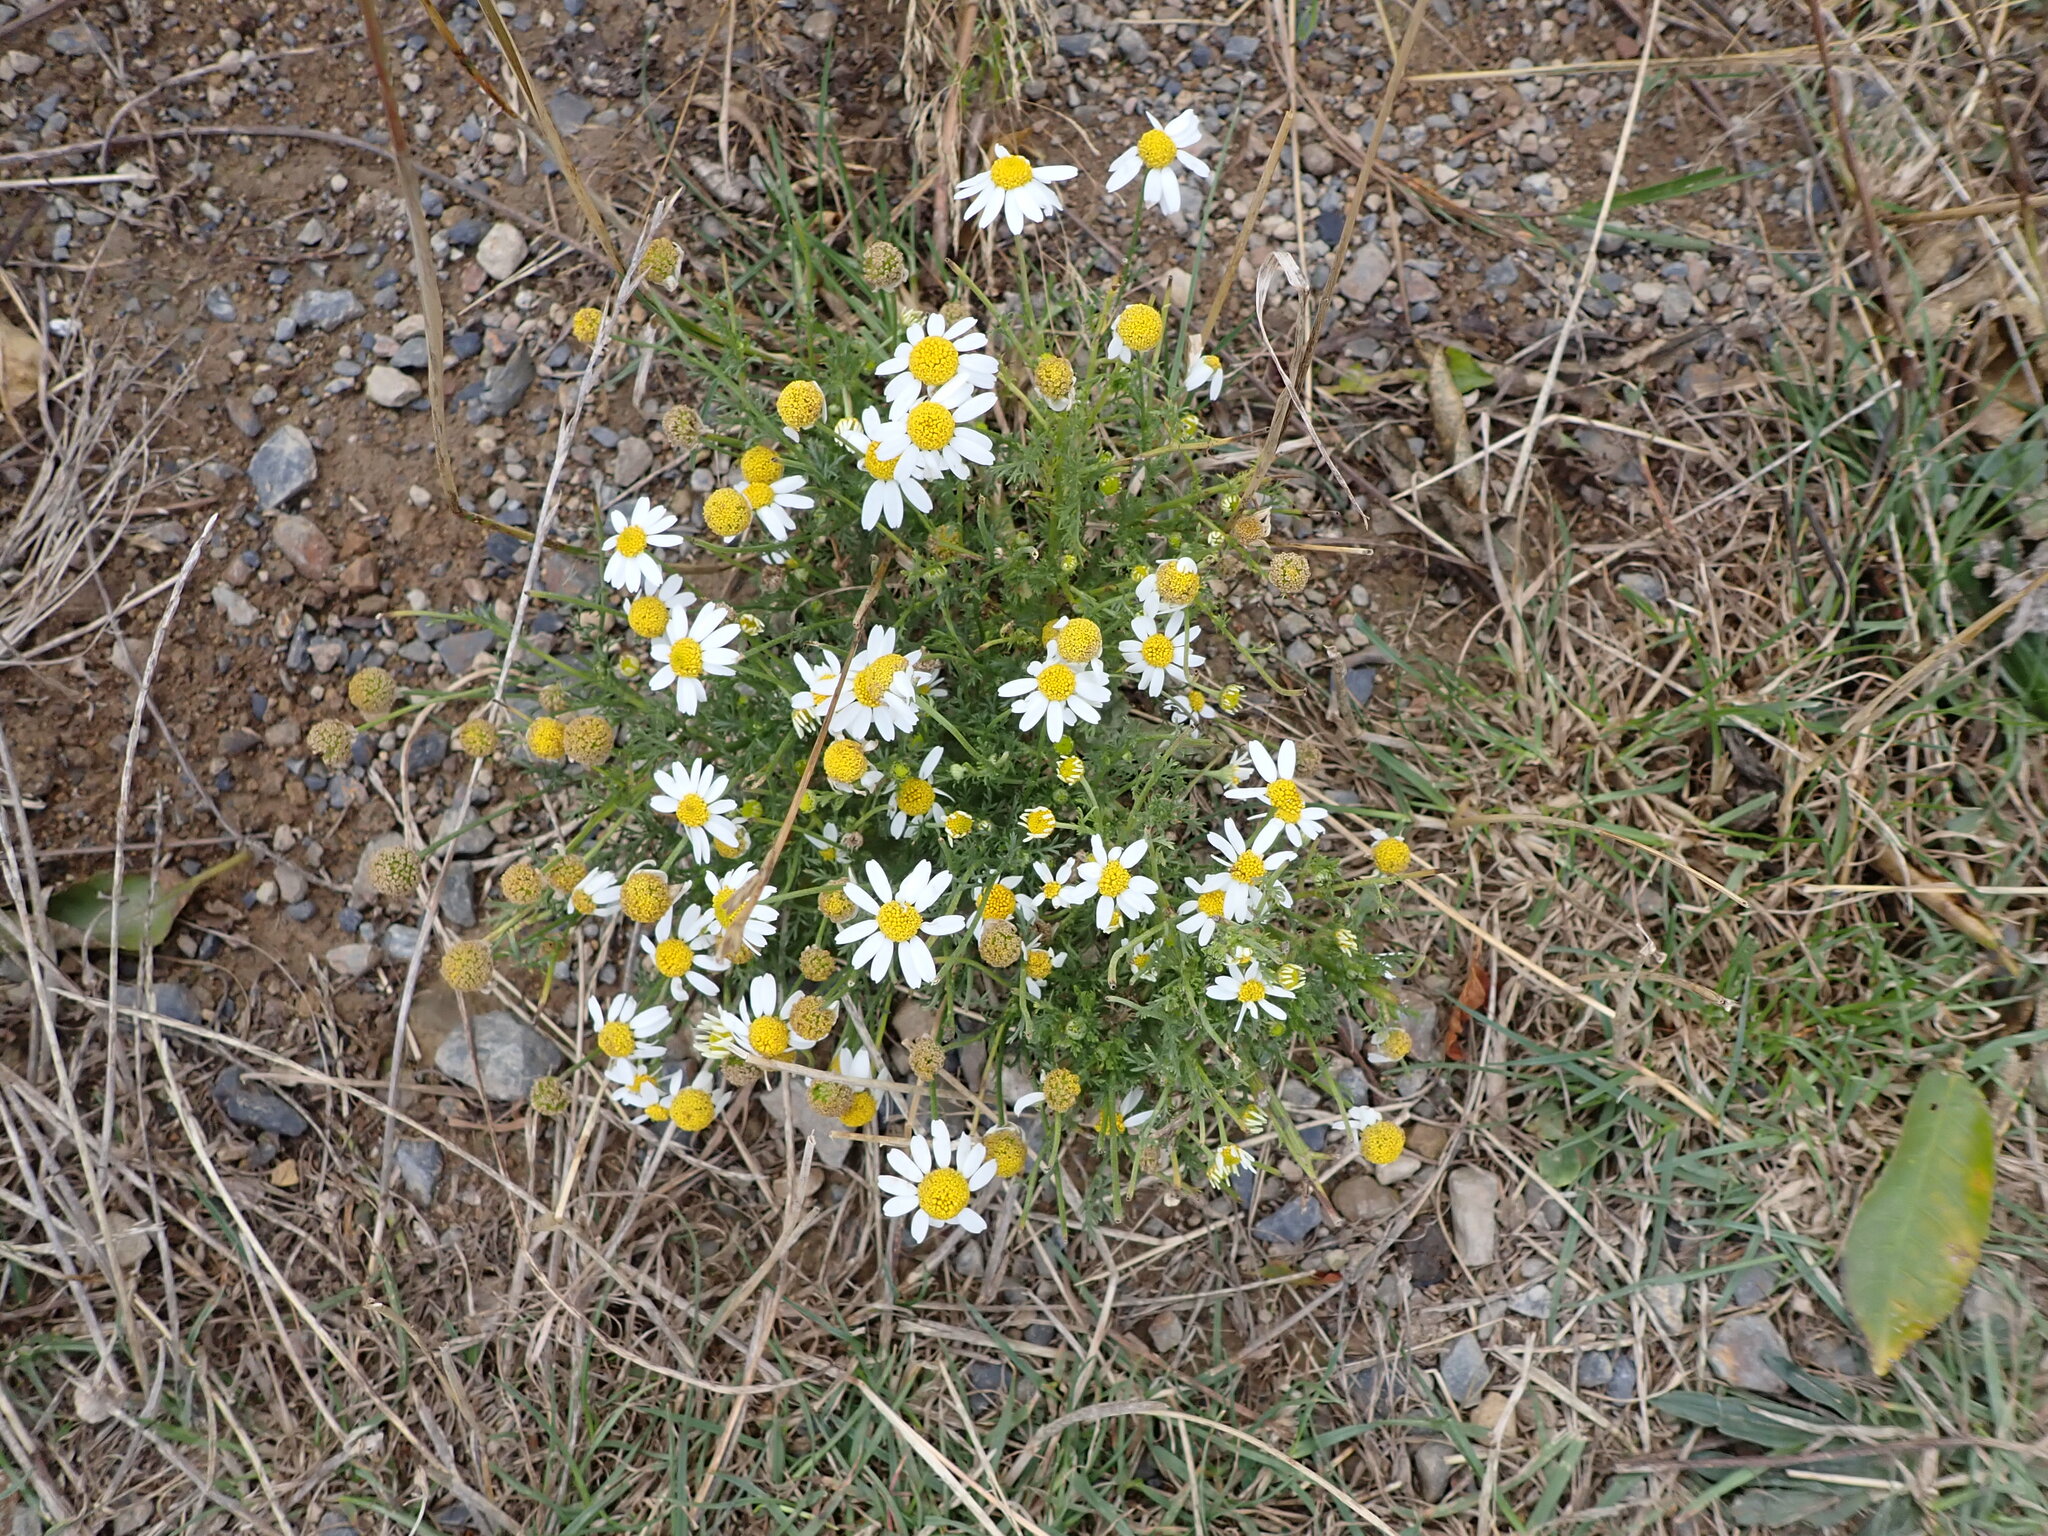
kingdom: Plantae
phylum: Tracheophyta
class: Magnoliopsida
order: Asterales
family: Asteraceae
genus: Anthemis
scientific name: Anthemis cotula
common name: Stinking chamomile
